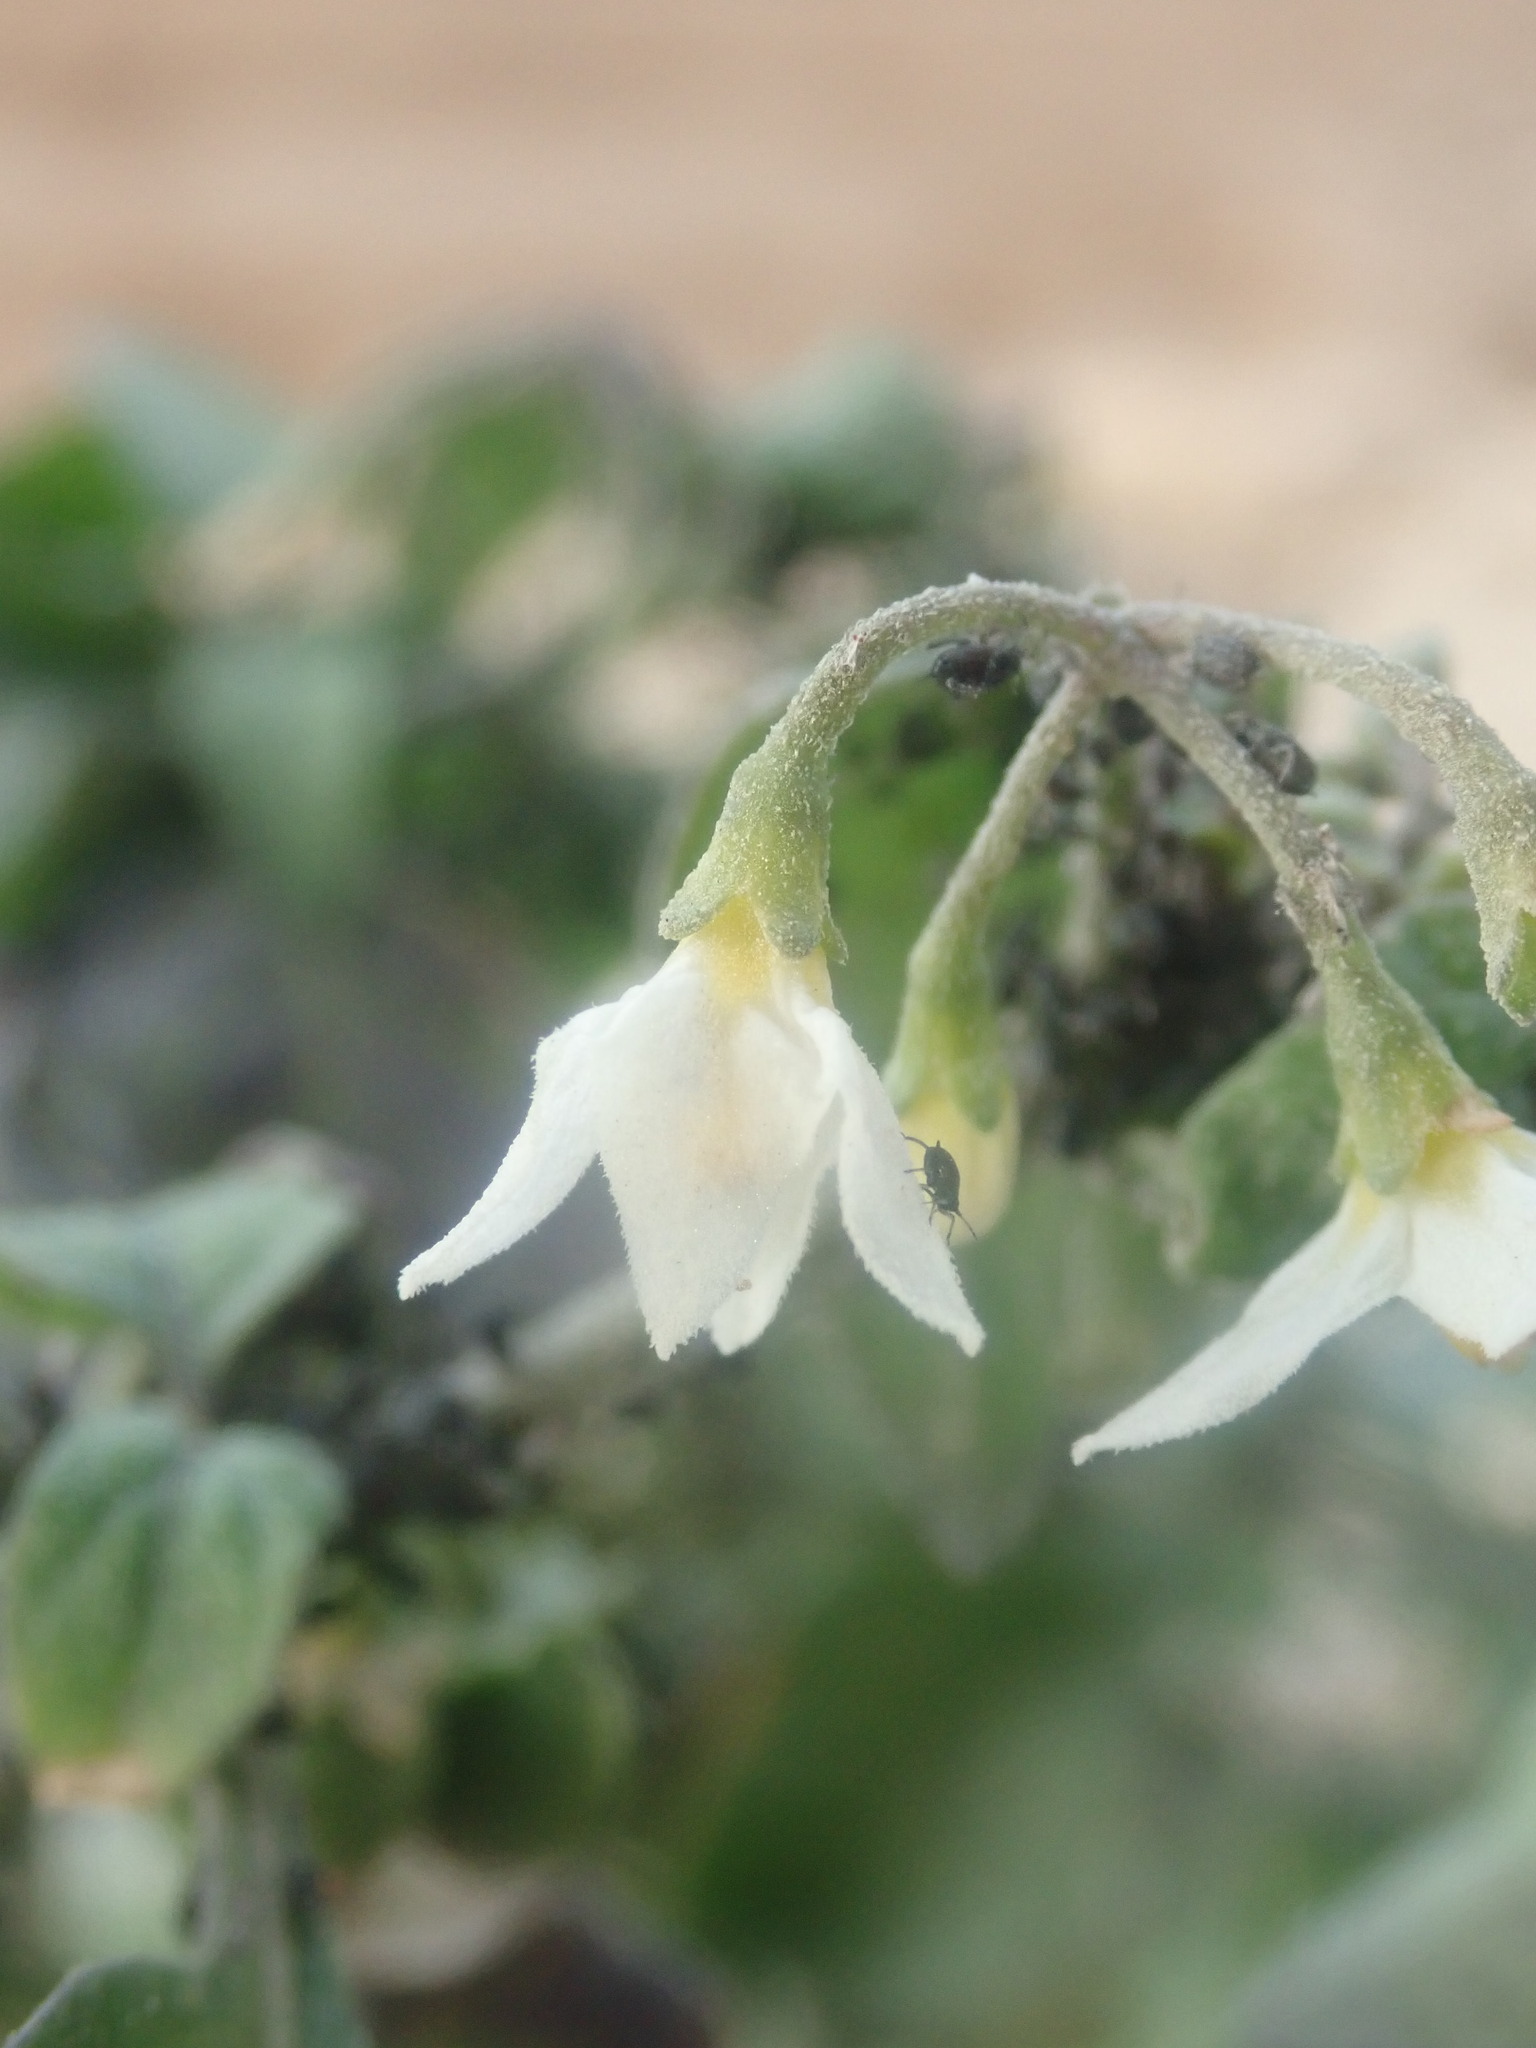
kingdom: Plantae
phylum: Tracheophyta
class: Magnoliopsida
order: Solanales
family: Solanaceae
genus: Solanum
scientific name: Solanum villosum
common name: Red nightshade
